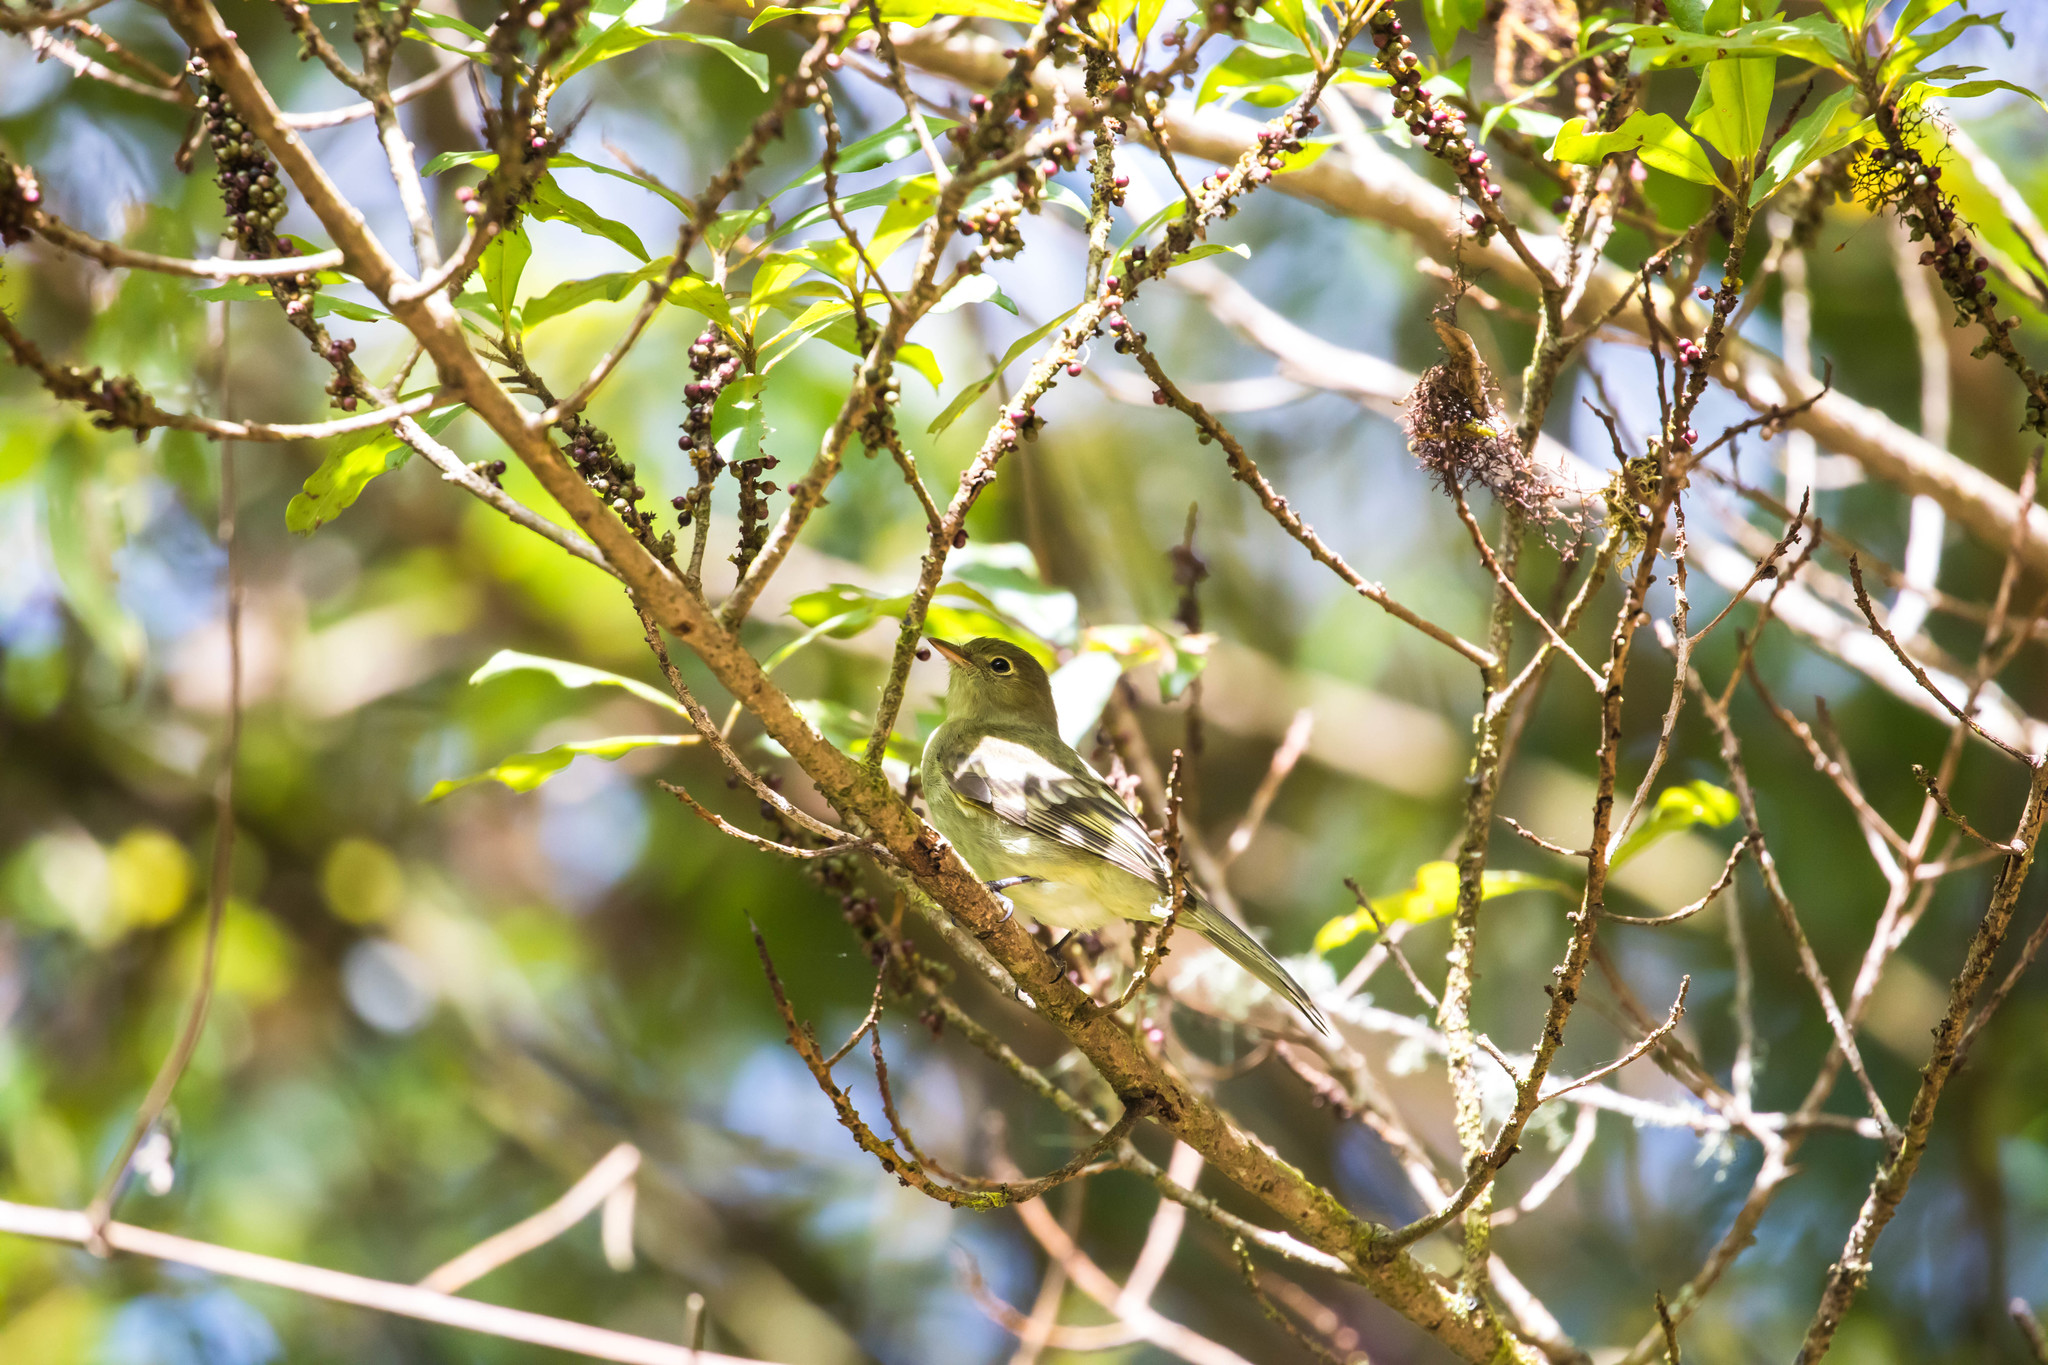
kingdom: Animalia
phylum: Chordata
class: Aves
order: Passeriformes
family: Tyrannidae
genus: Elaenia
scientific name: Elaenia frantzii
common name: Mountain elaenia
